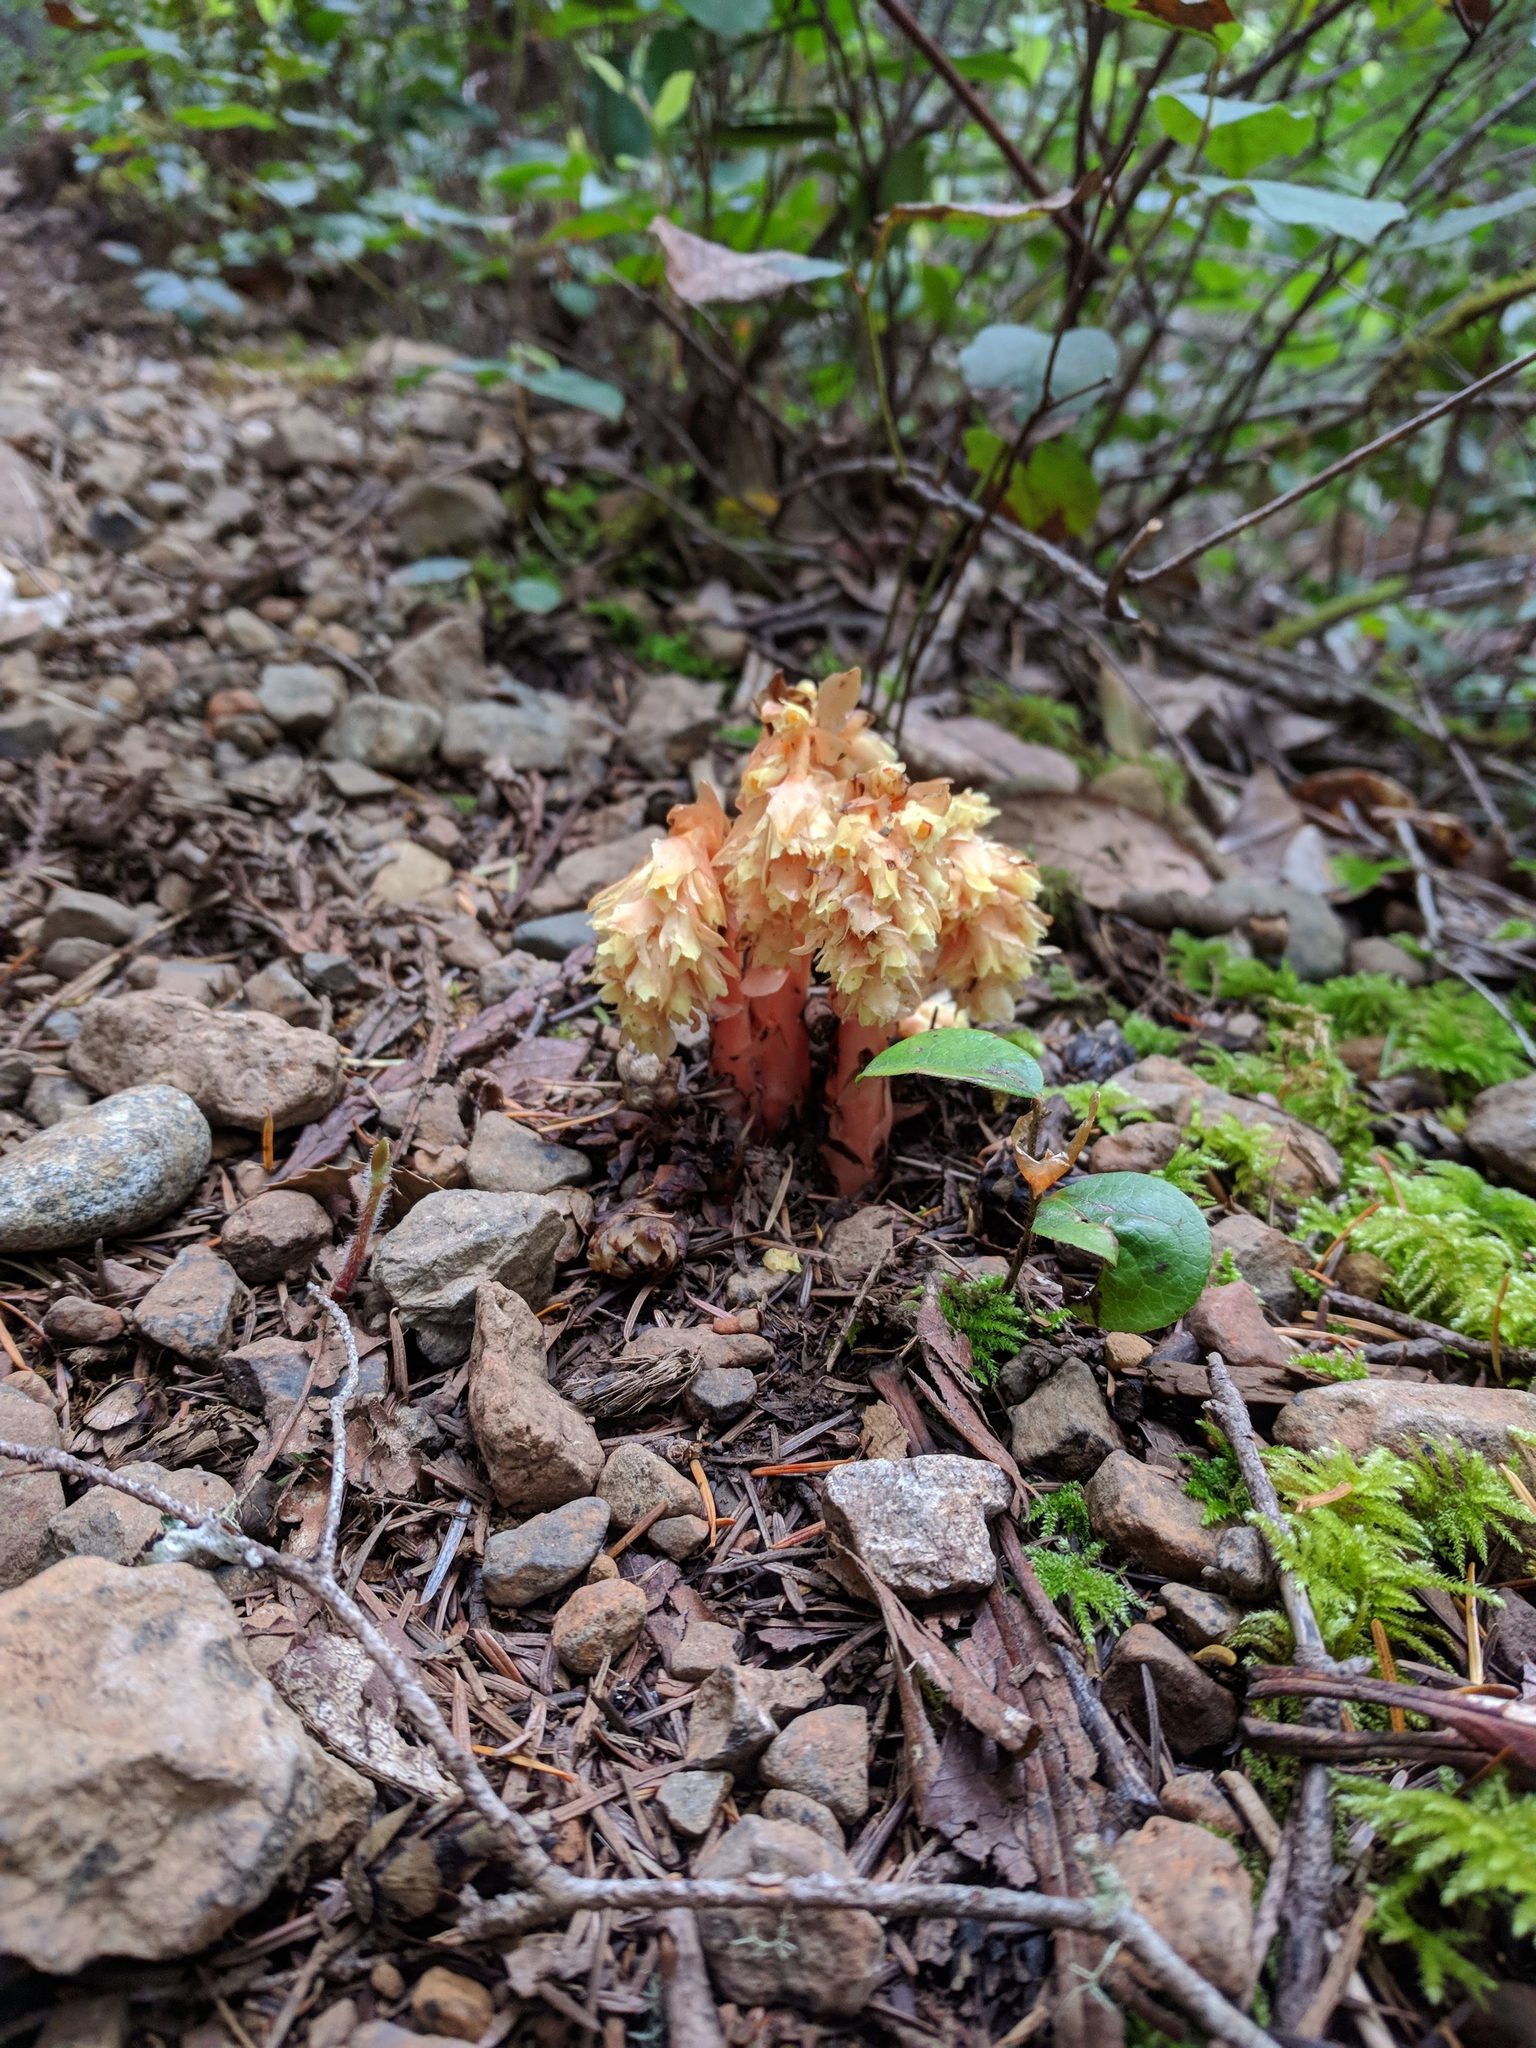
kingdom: Plantae
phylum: Tracheophyta
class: Magnoliopsida
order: Ericales
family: Ericaceae
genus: Hypopitys
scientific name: Hypopitys monotropa
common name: Yellow bird's-nest
